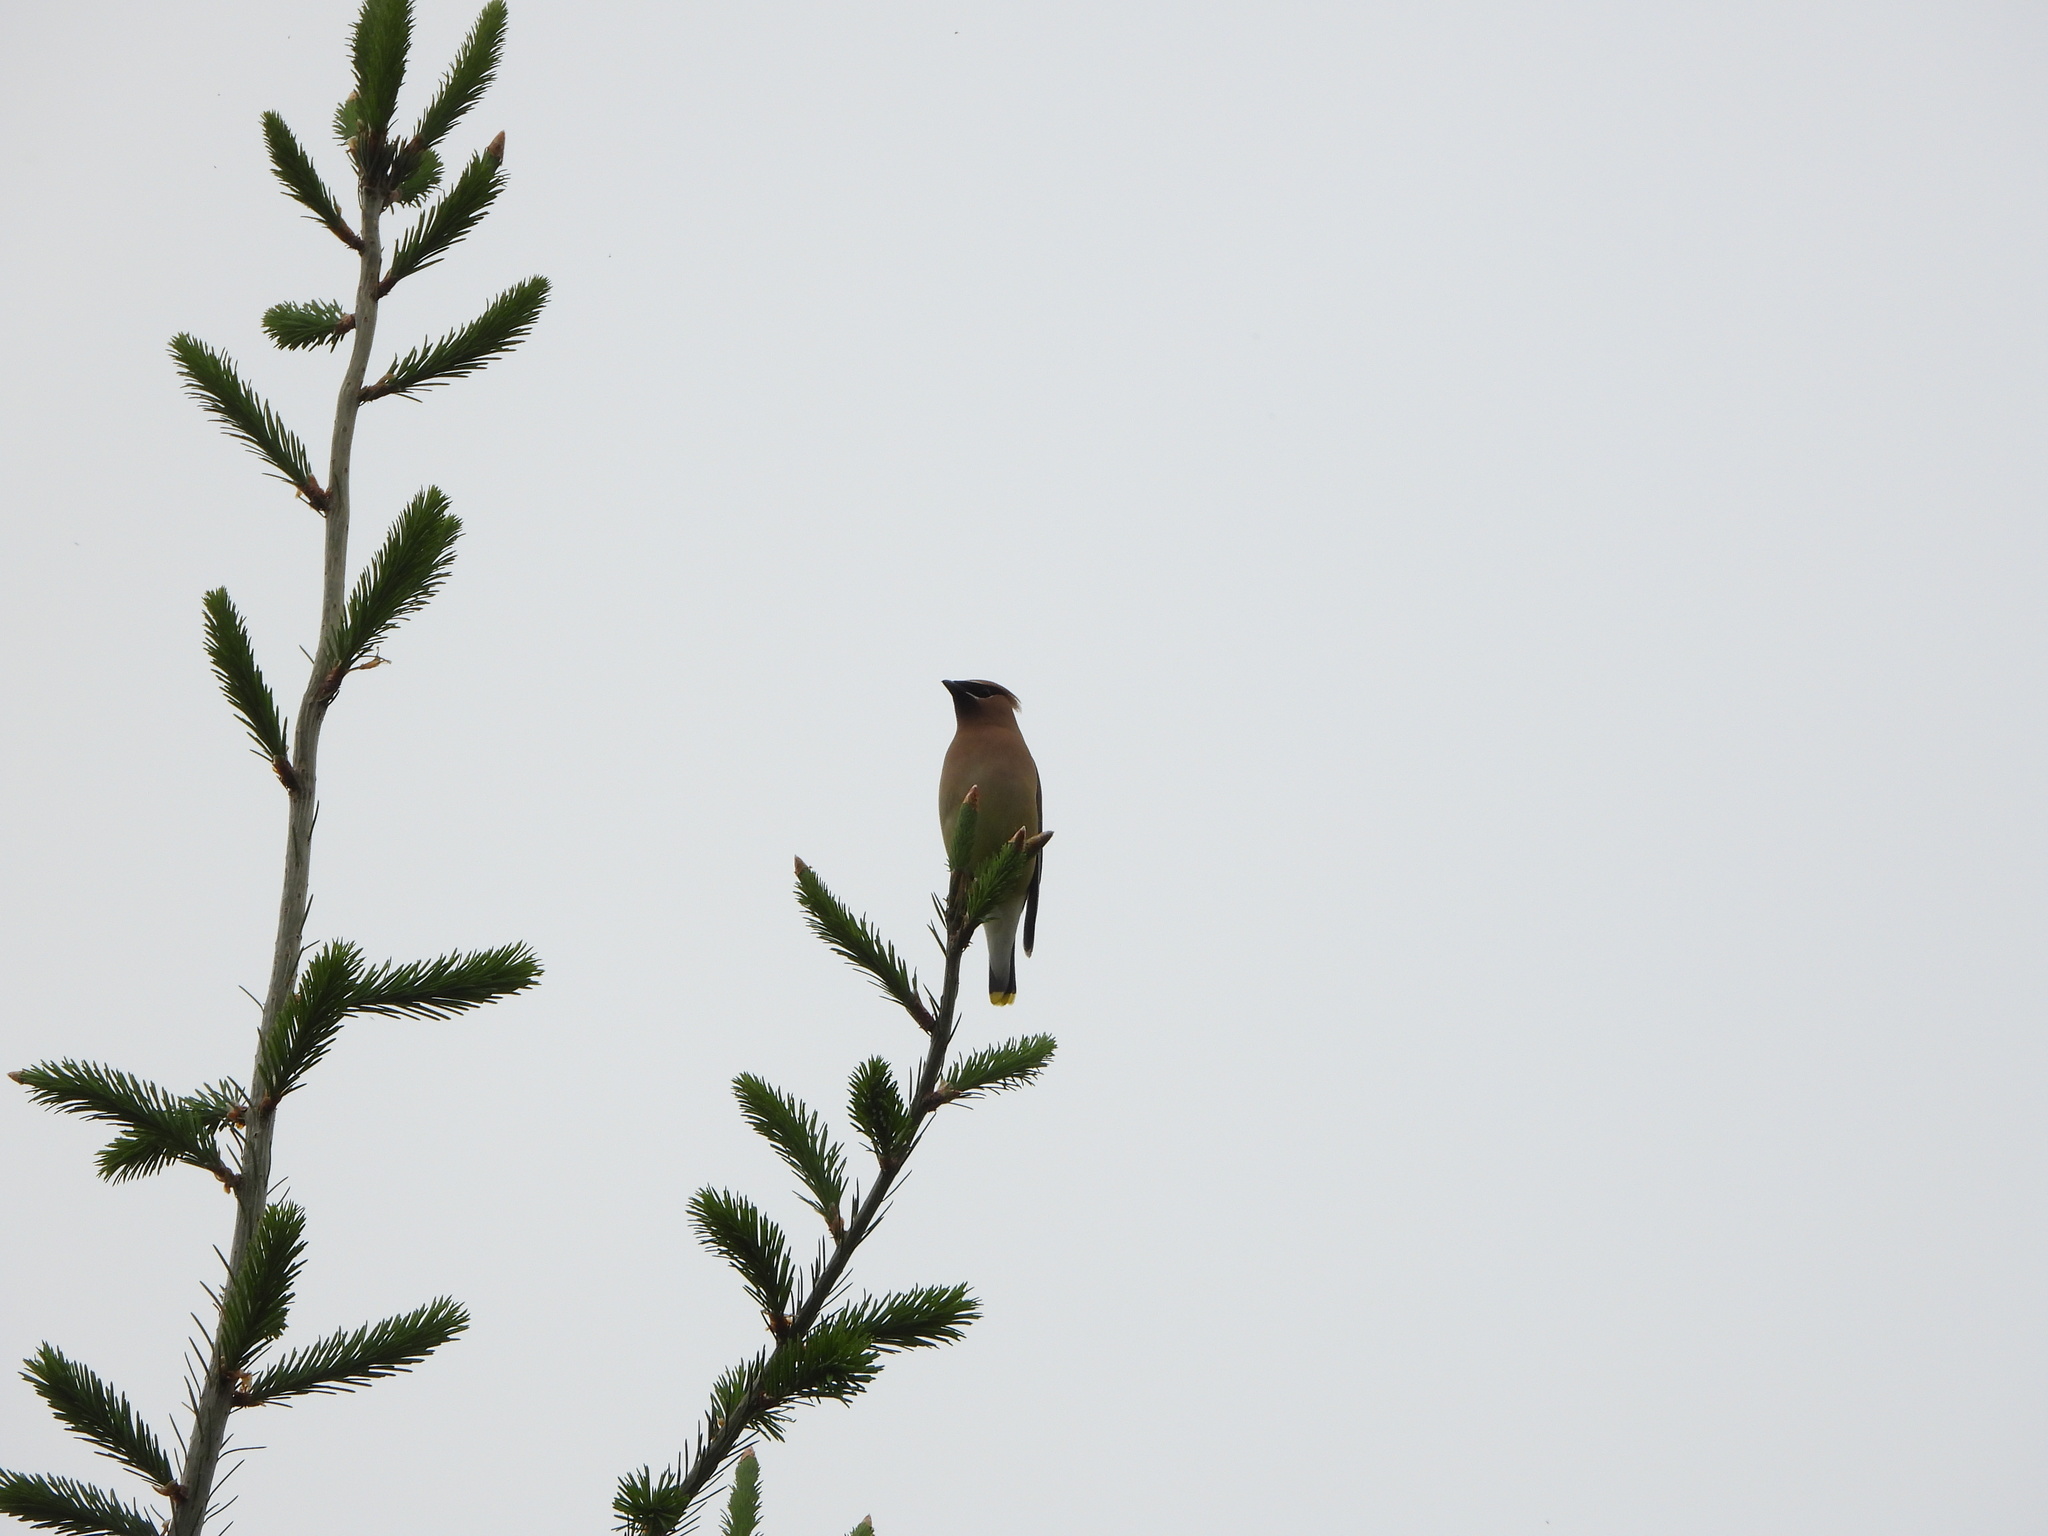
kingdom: Animalia
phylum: Chordata
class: Aves
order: Passeriformes
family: Bombycillidae
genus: Bombycilla
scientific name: Bombycilla cedrorum
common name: Cedar waxwing
